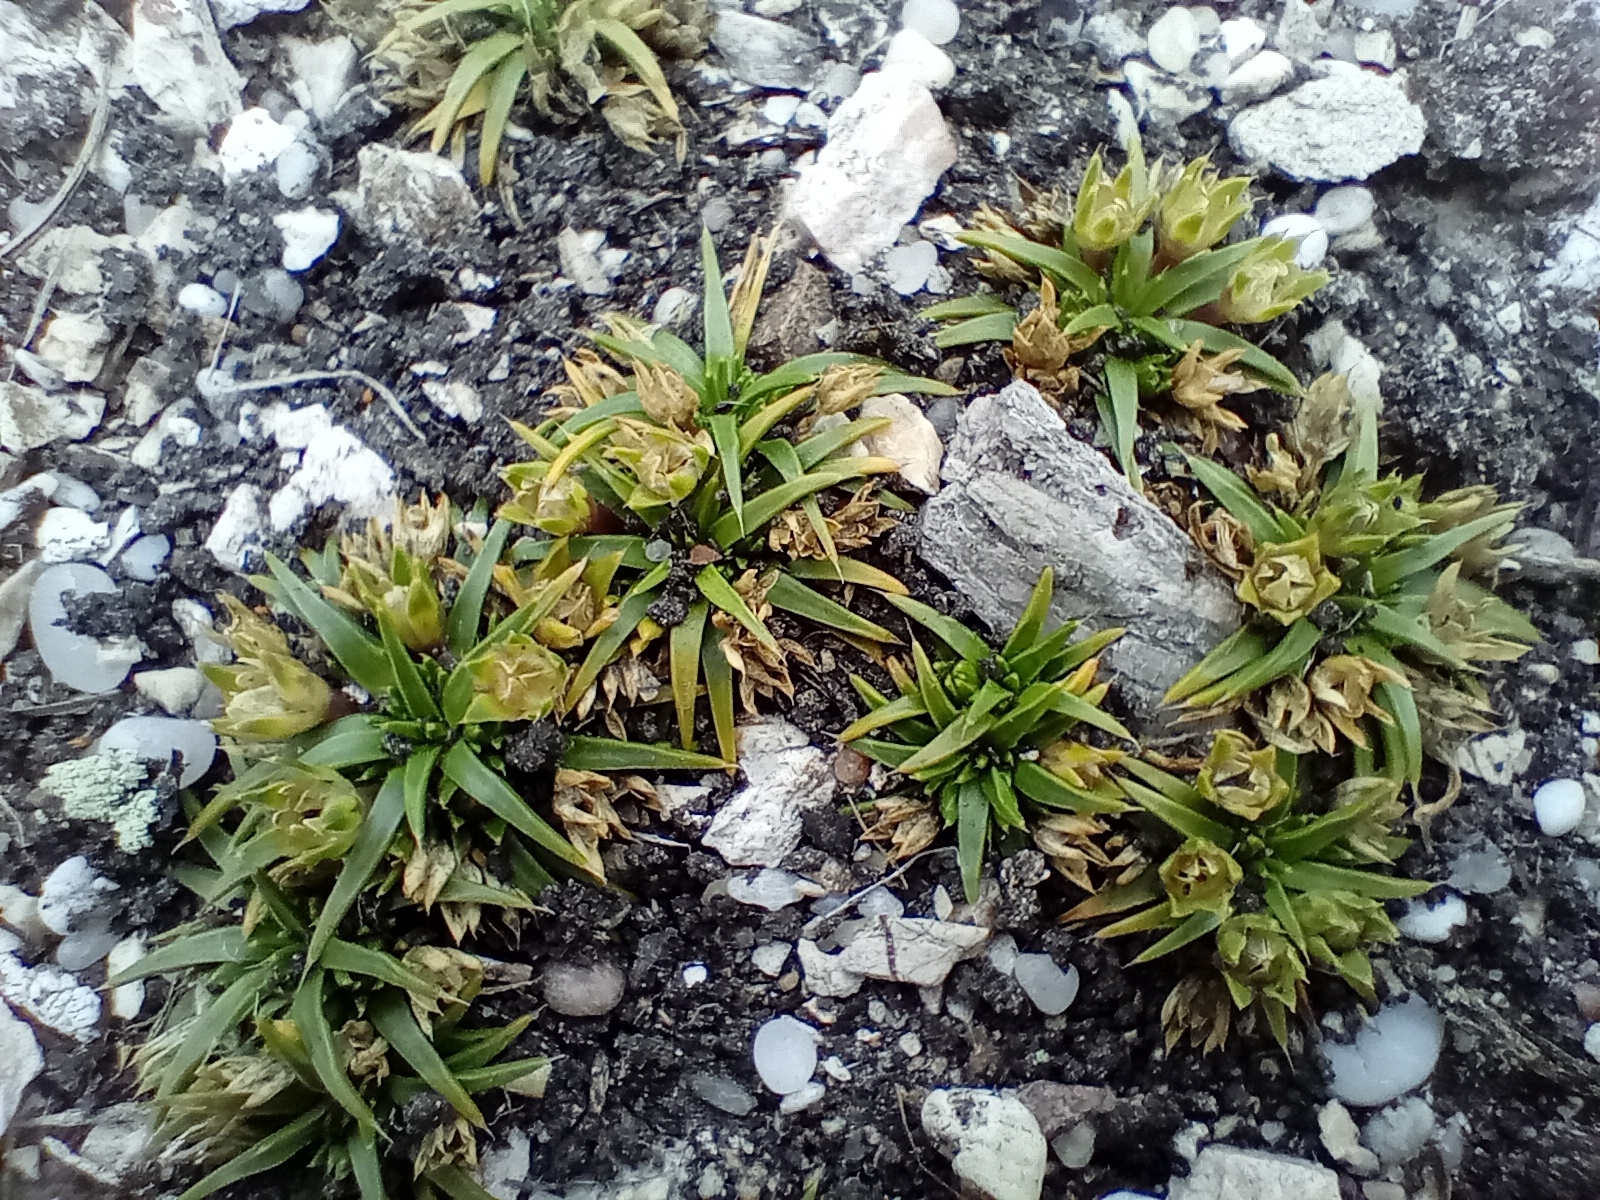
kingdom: Plantae
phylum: Tracheophyta
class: Magnoliopsida
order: Caryophyllales
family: Caryophyllaceae
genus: Colobanthus
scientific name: Colobanthus muelleri
